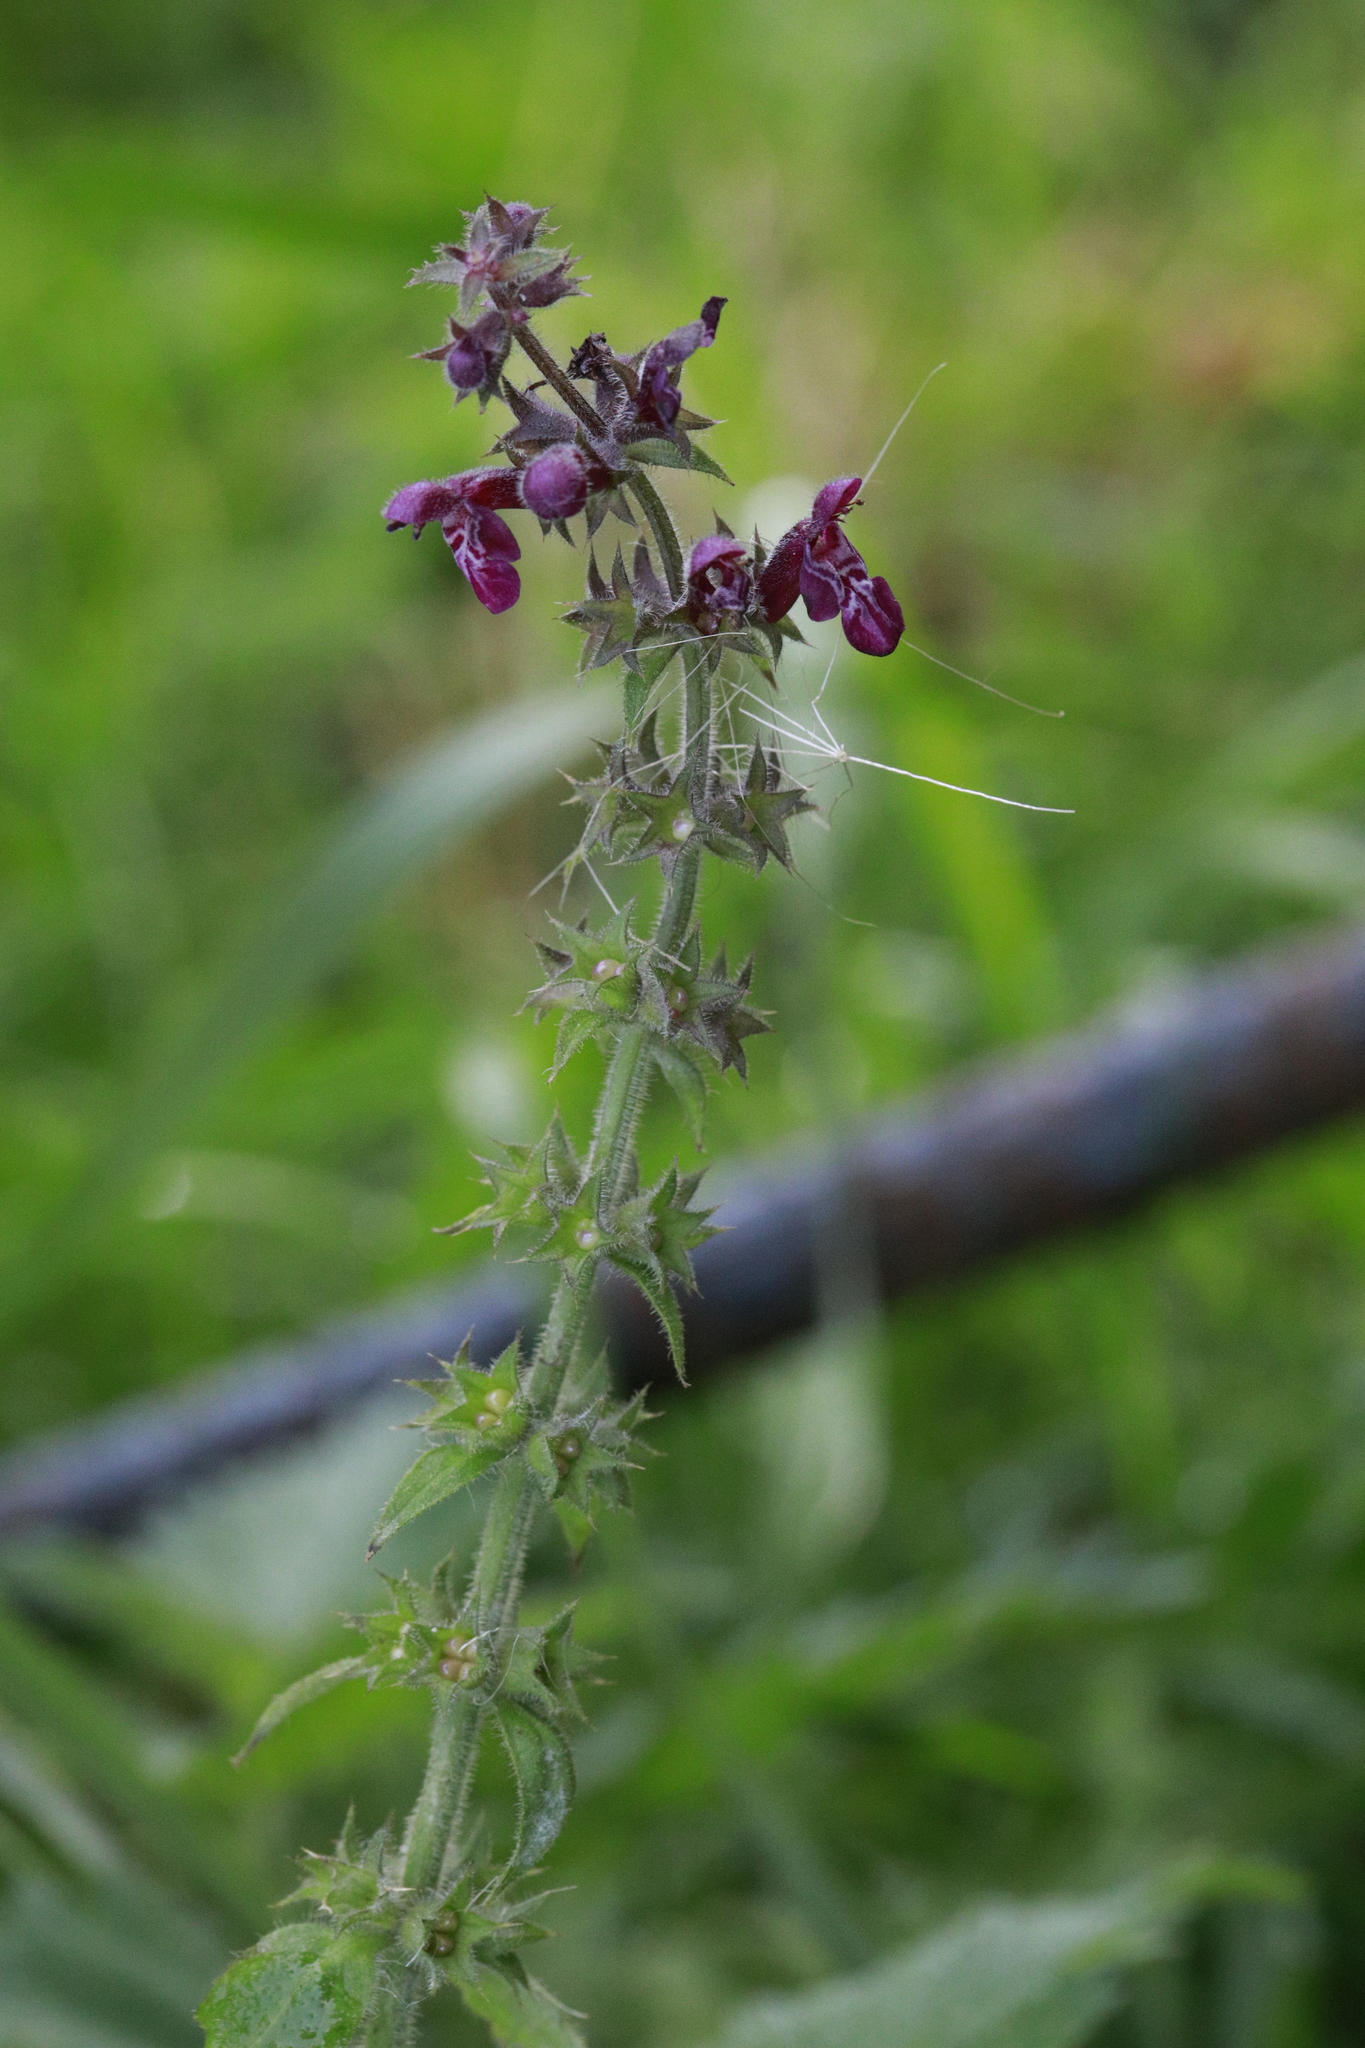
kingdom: Plantae
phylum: Tracheophyta
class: Magnoliopsida
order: Lamiales
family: Lamiaceae
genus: Stachys
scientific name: Stachys sylvatica
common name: Hedge woundwort
